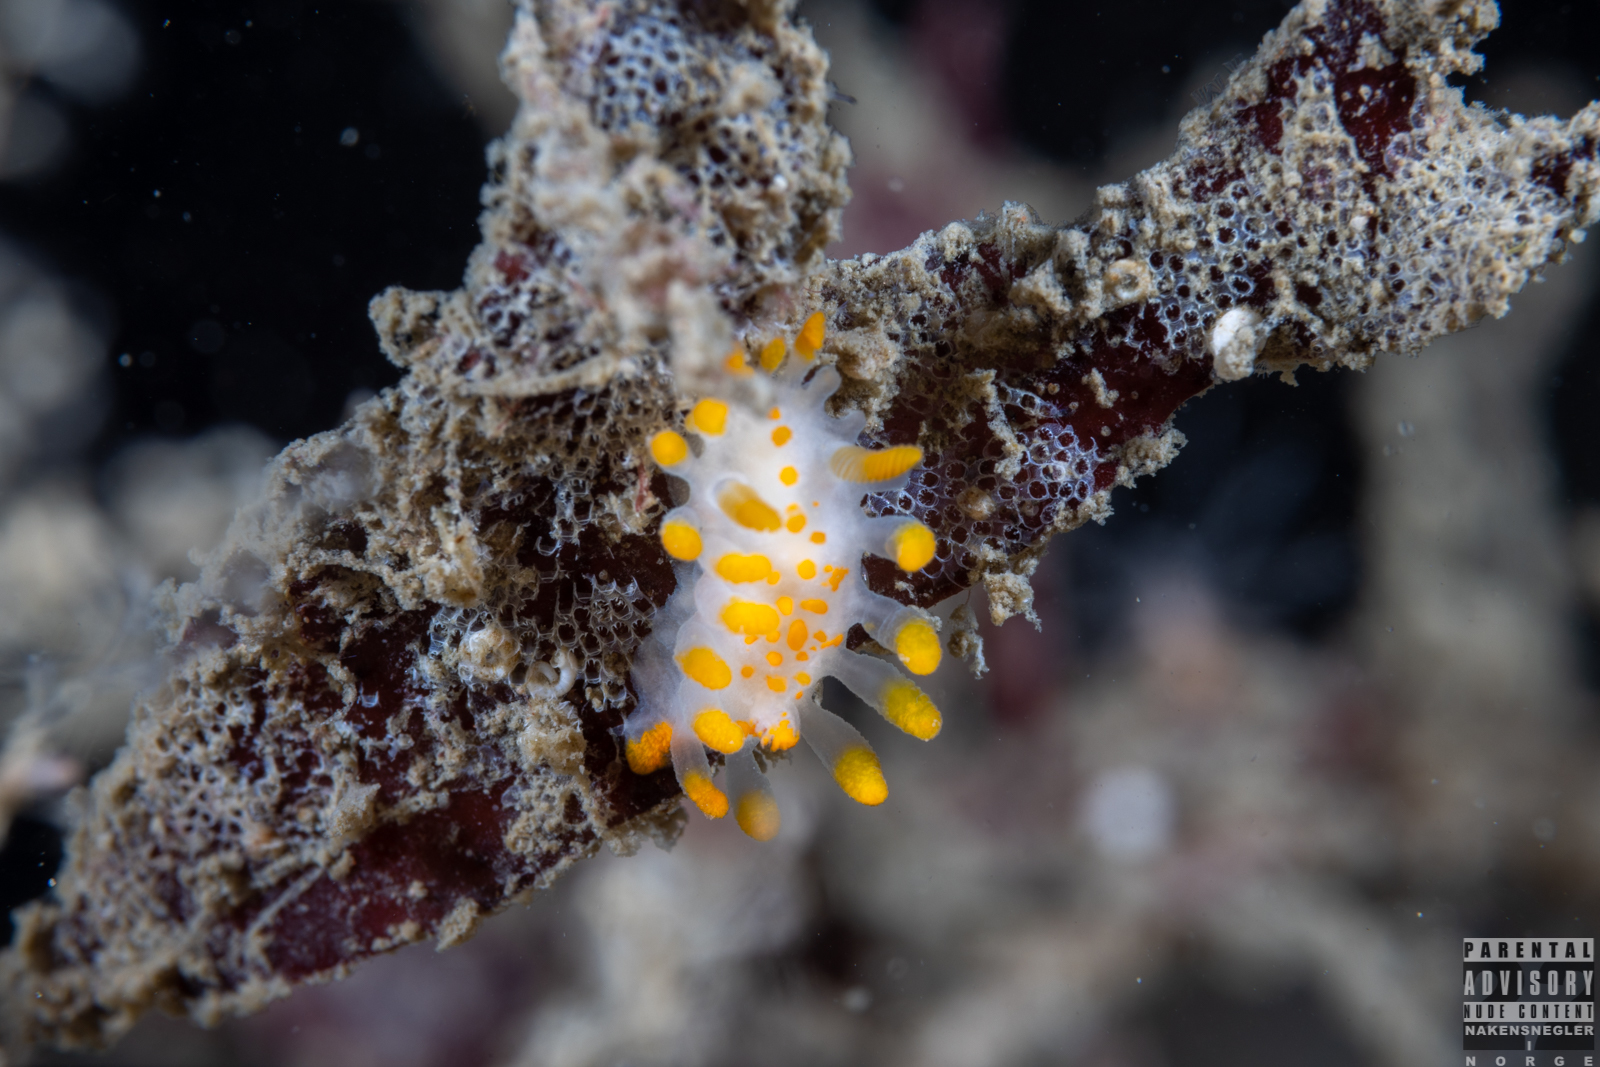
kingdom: Animalia
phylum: Mollusca
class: Gastropoda
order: Nudibranchia
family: Polyceridae
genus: Limacia
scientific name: Limacia clavigera
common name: Orange-clubbed sea slug
